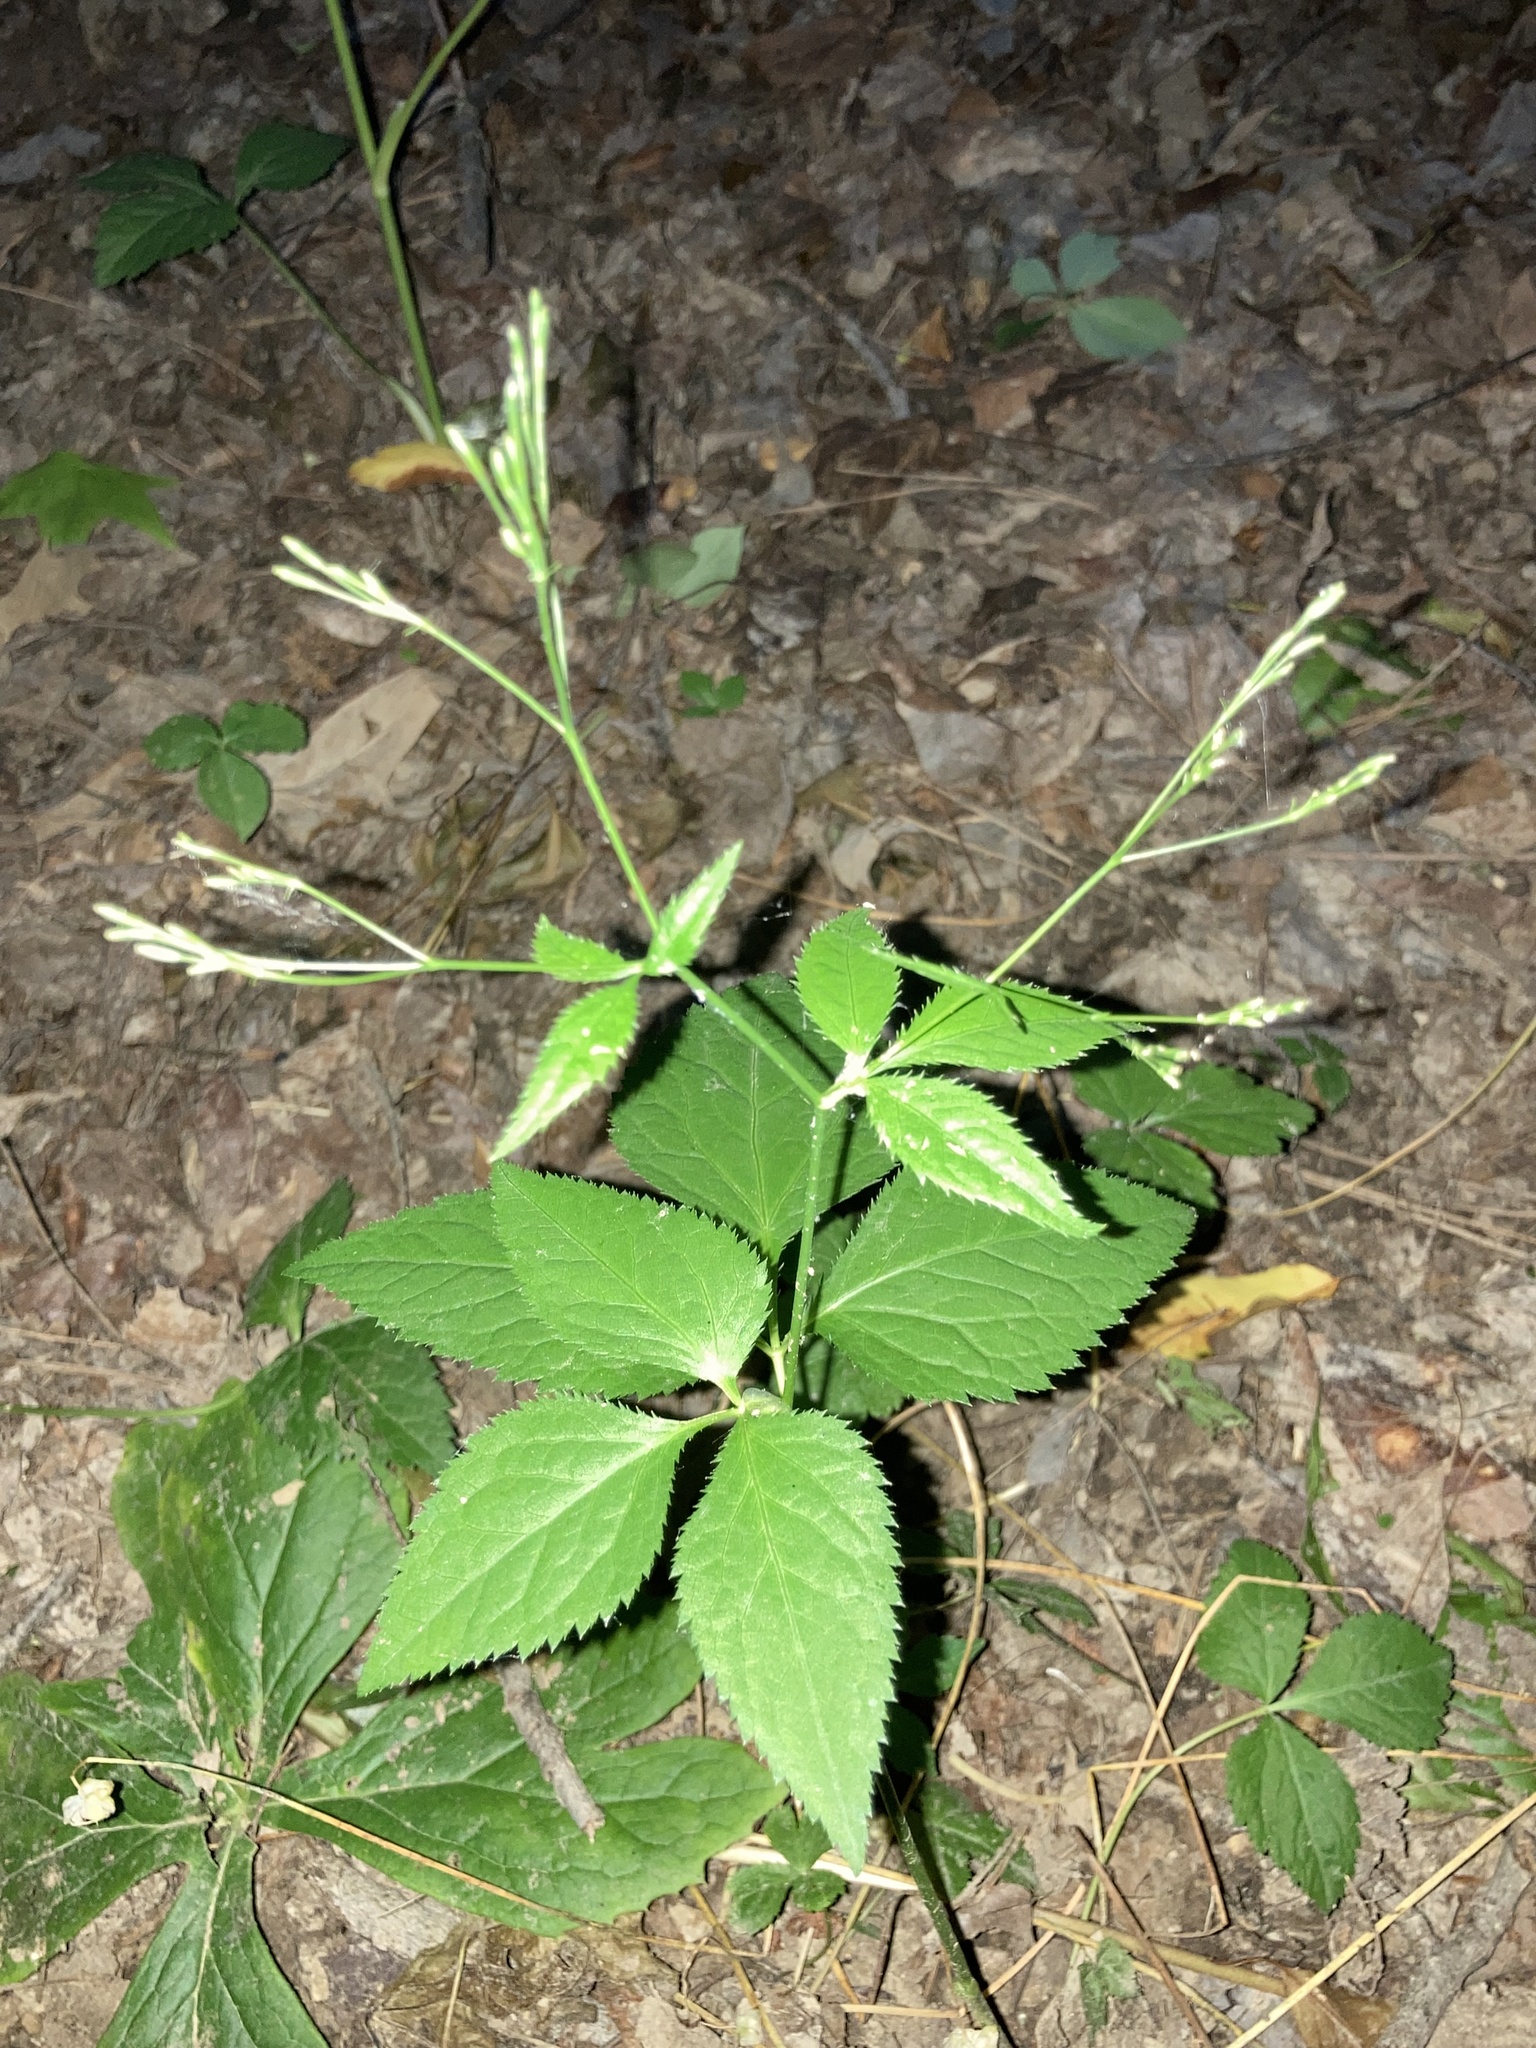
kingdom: Plantae
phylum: Tracheophyta
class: Magnoliopsida
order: Apiales
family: Apiaceae
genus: Cryptotaenia
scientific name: Cryptotaenia canadensis
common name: Honewort
